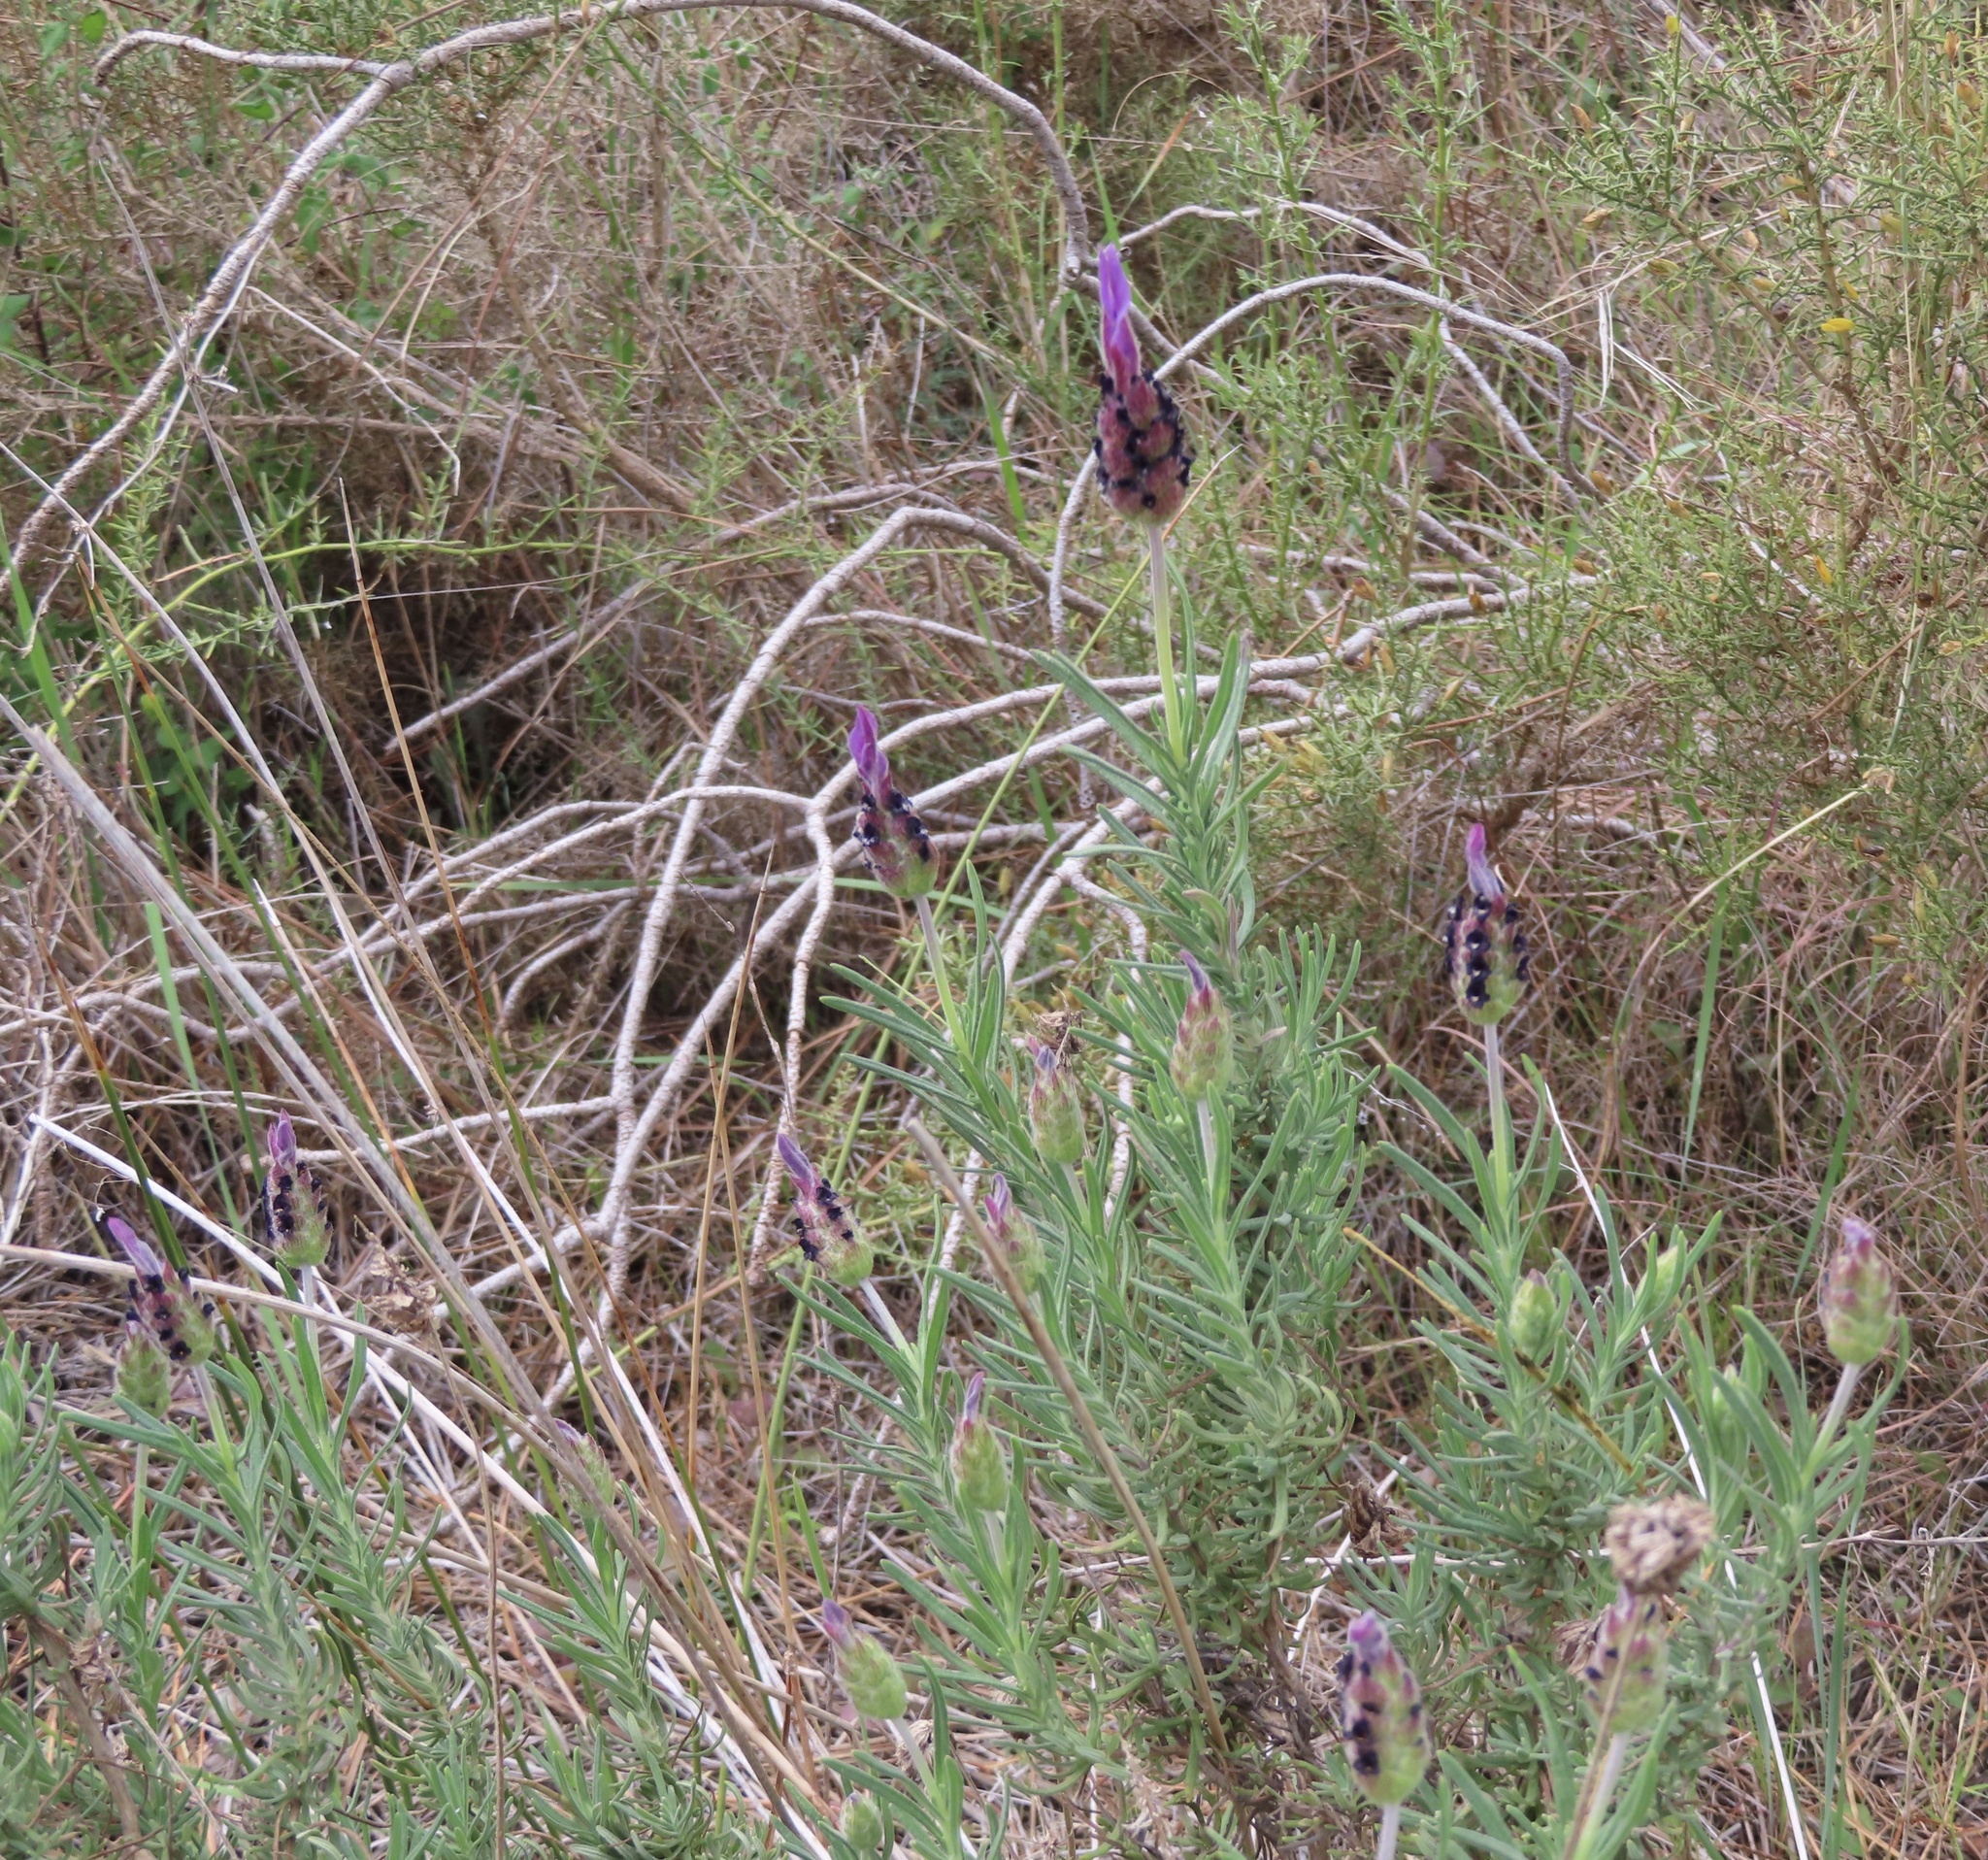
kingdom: Plantae
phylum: Tracheophyta
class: Magnoliopsida
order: Lamiales
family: Lamiaceae
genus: Lavandula
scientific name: Lavandula pedunculata
